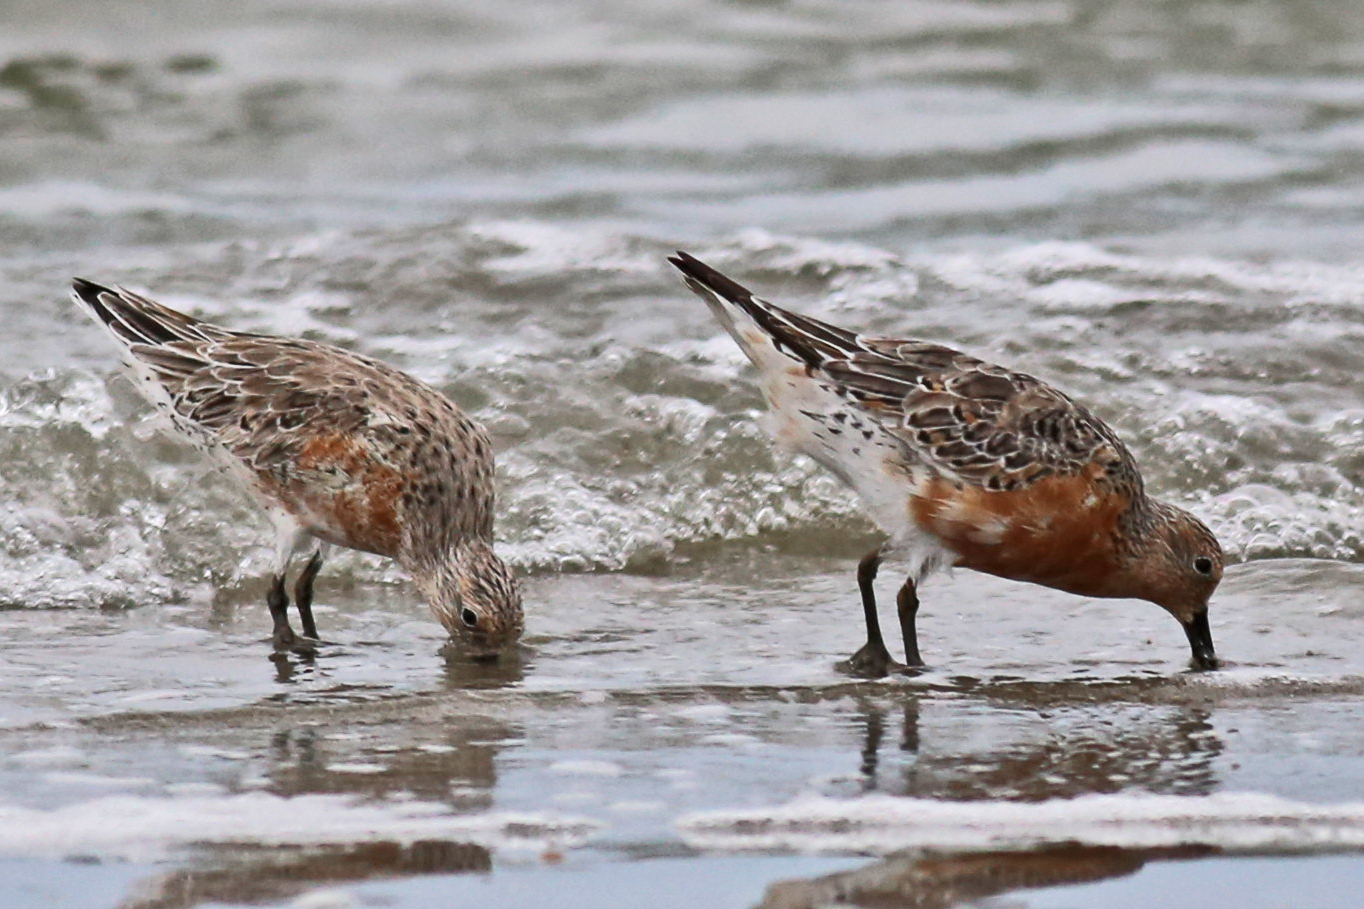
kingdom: Animalia
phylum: Chordata
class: Aves
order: Charadriiformes
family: Scolopacidae
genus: Calidris
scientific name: Calidris canutus
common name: Red knot
